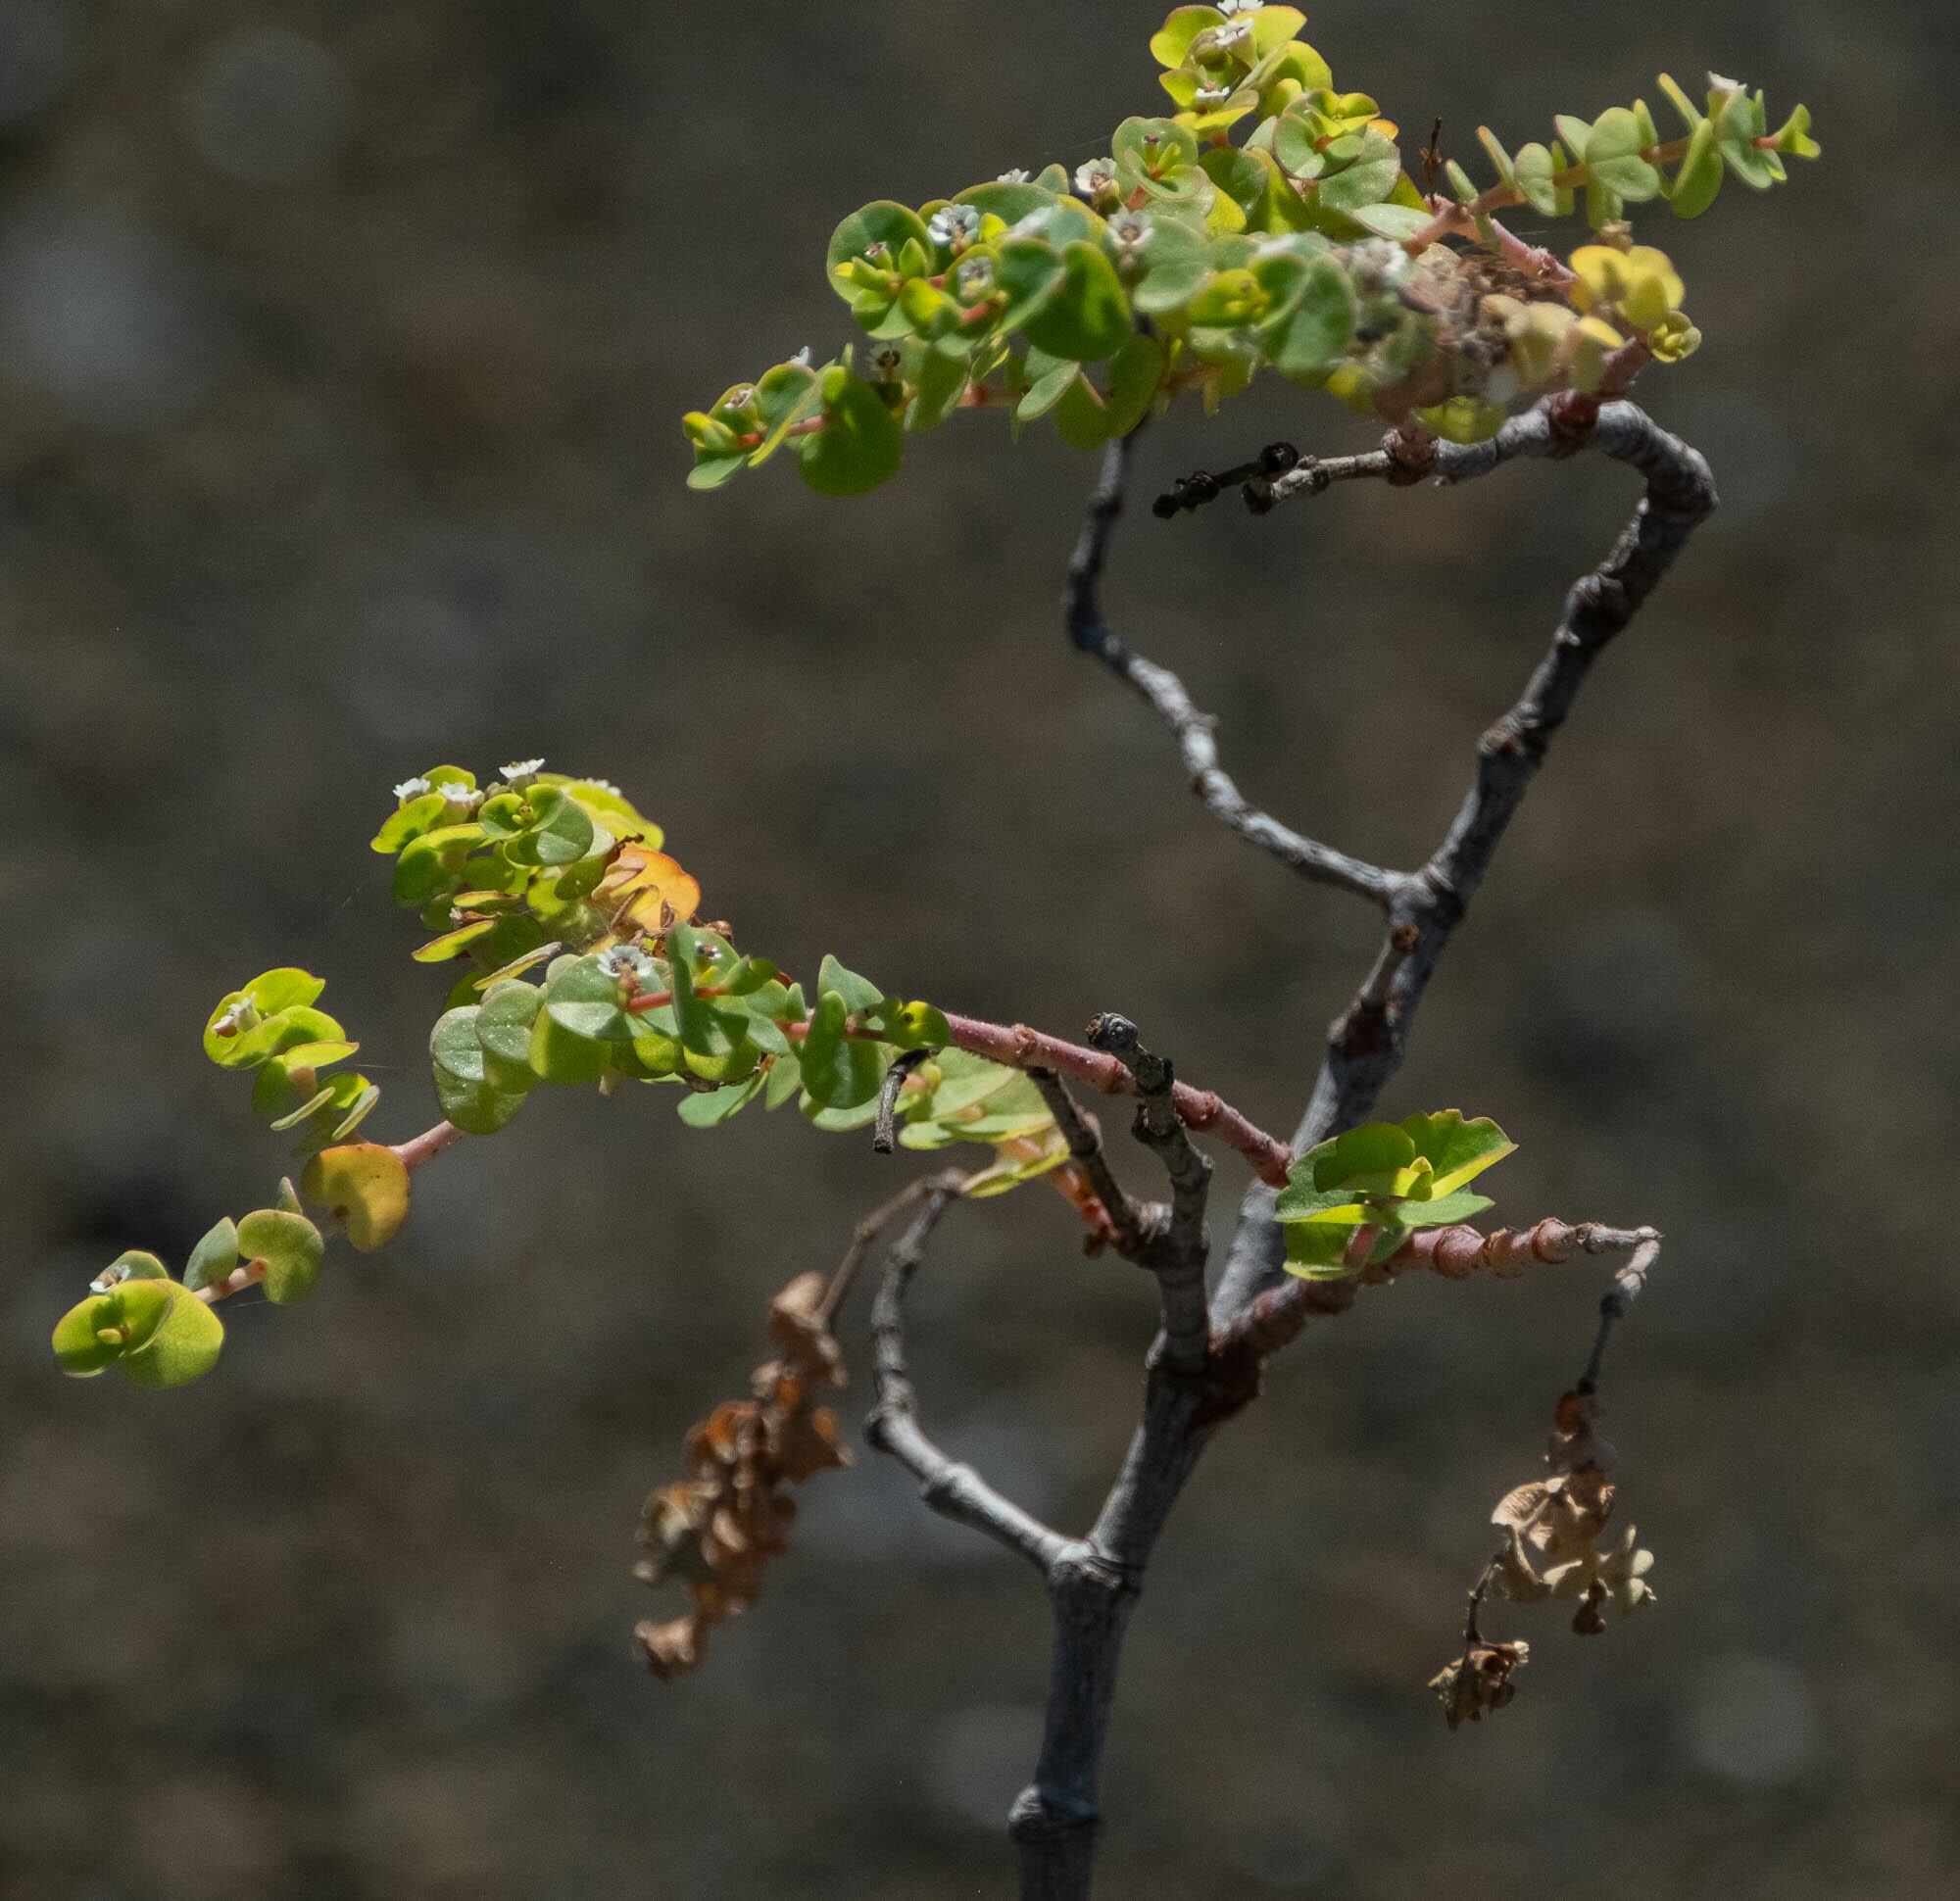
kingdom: Plantae
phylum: Tracheophyta
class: Magnoliopsida
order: Malpighiales
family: Euphorbiaceae
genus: Euphorbia
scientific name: Euphorbia amplexicaulis
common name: Chamaesyce
